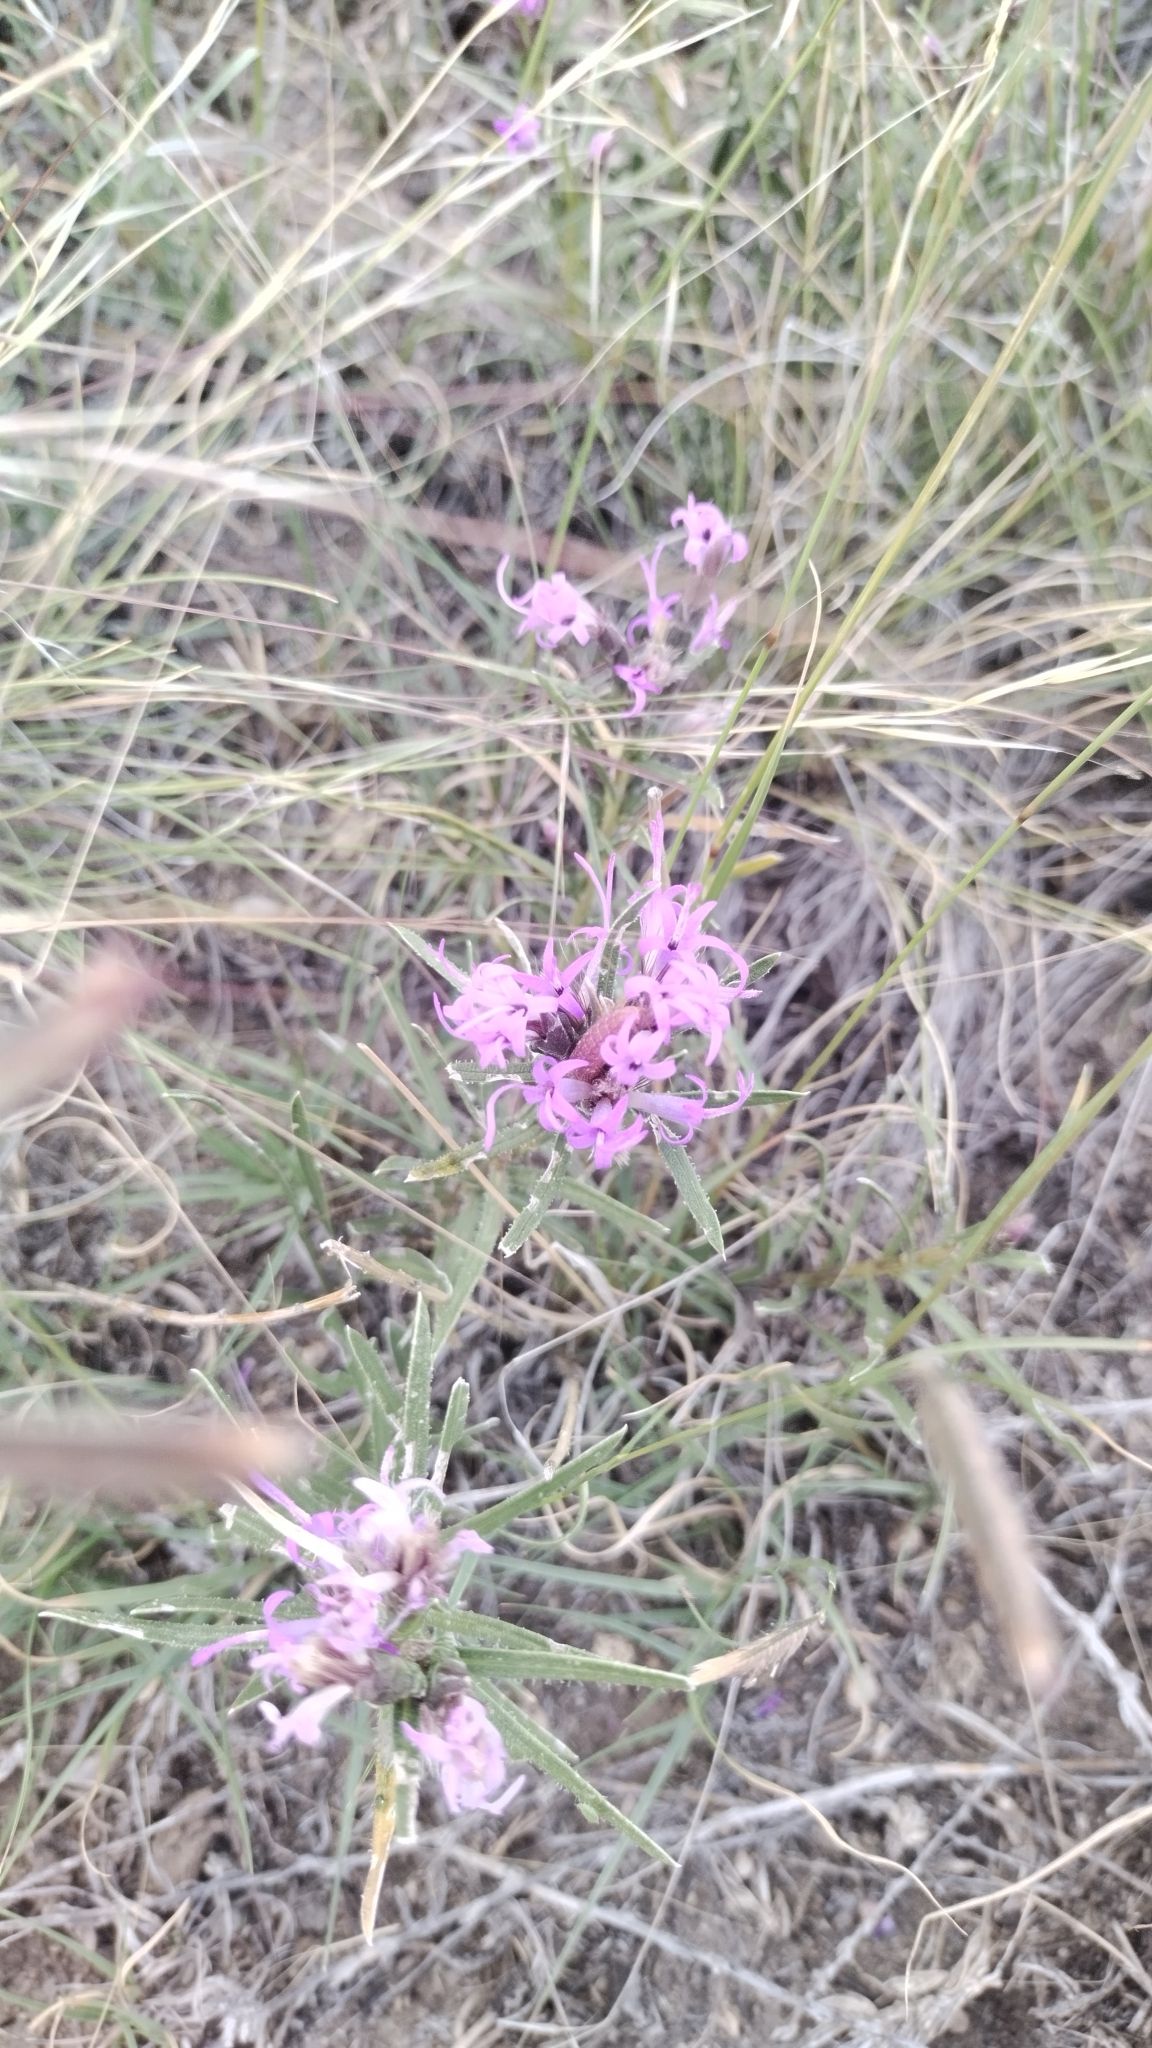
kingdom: Plantae
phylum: Tracheophyta
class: Magnoliopsida
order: Asterales
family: Asteraceae
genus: Liatris
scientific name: Liatris punctata
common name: Dotted gayfeather
